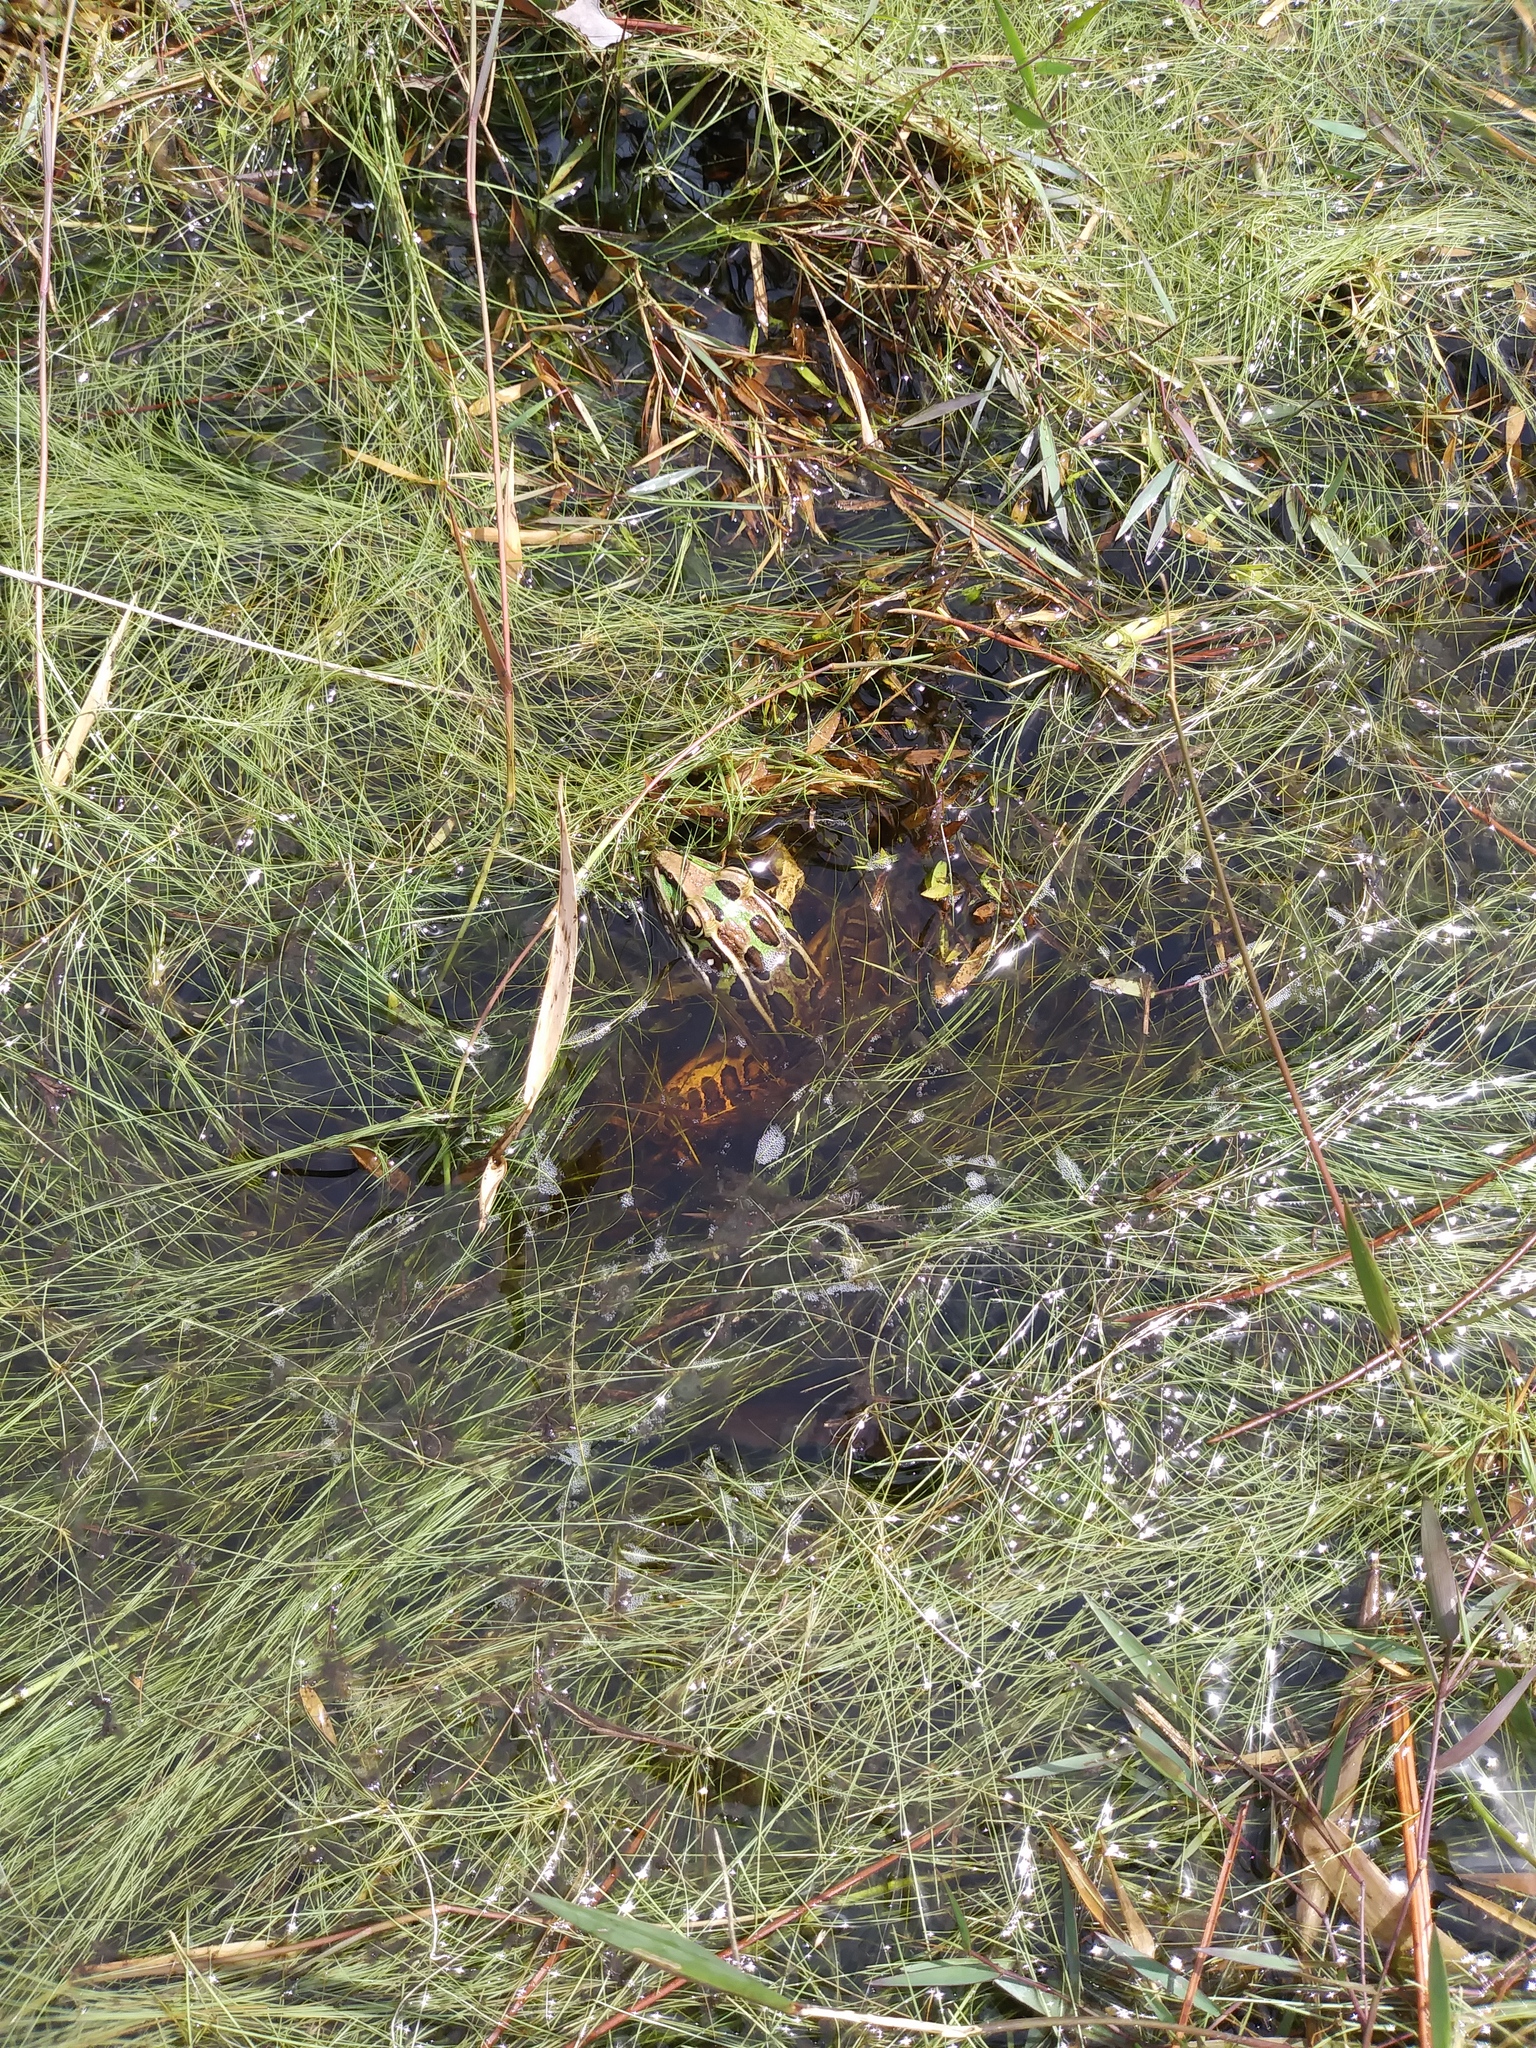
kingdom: Animalia
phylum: Chordata
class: Amphibia
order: Anura
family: Ranidae
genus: Lithobates
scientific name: Lithobates sphenocephalus
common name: Southern leopard frog
